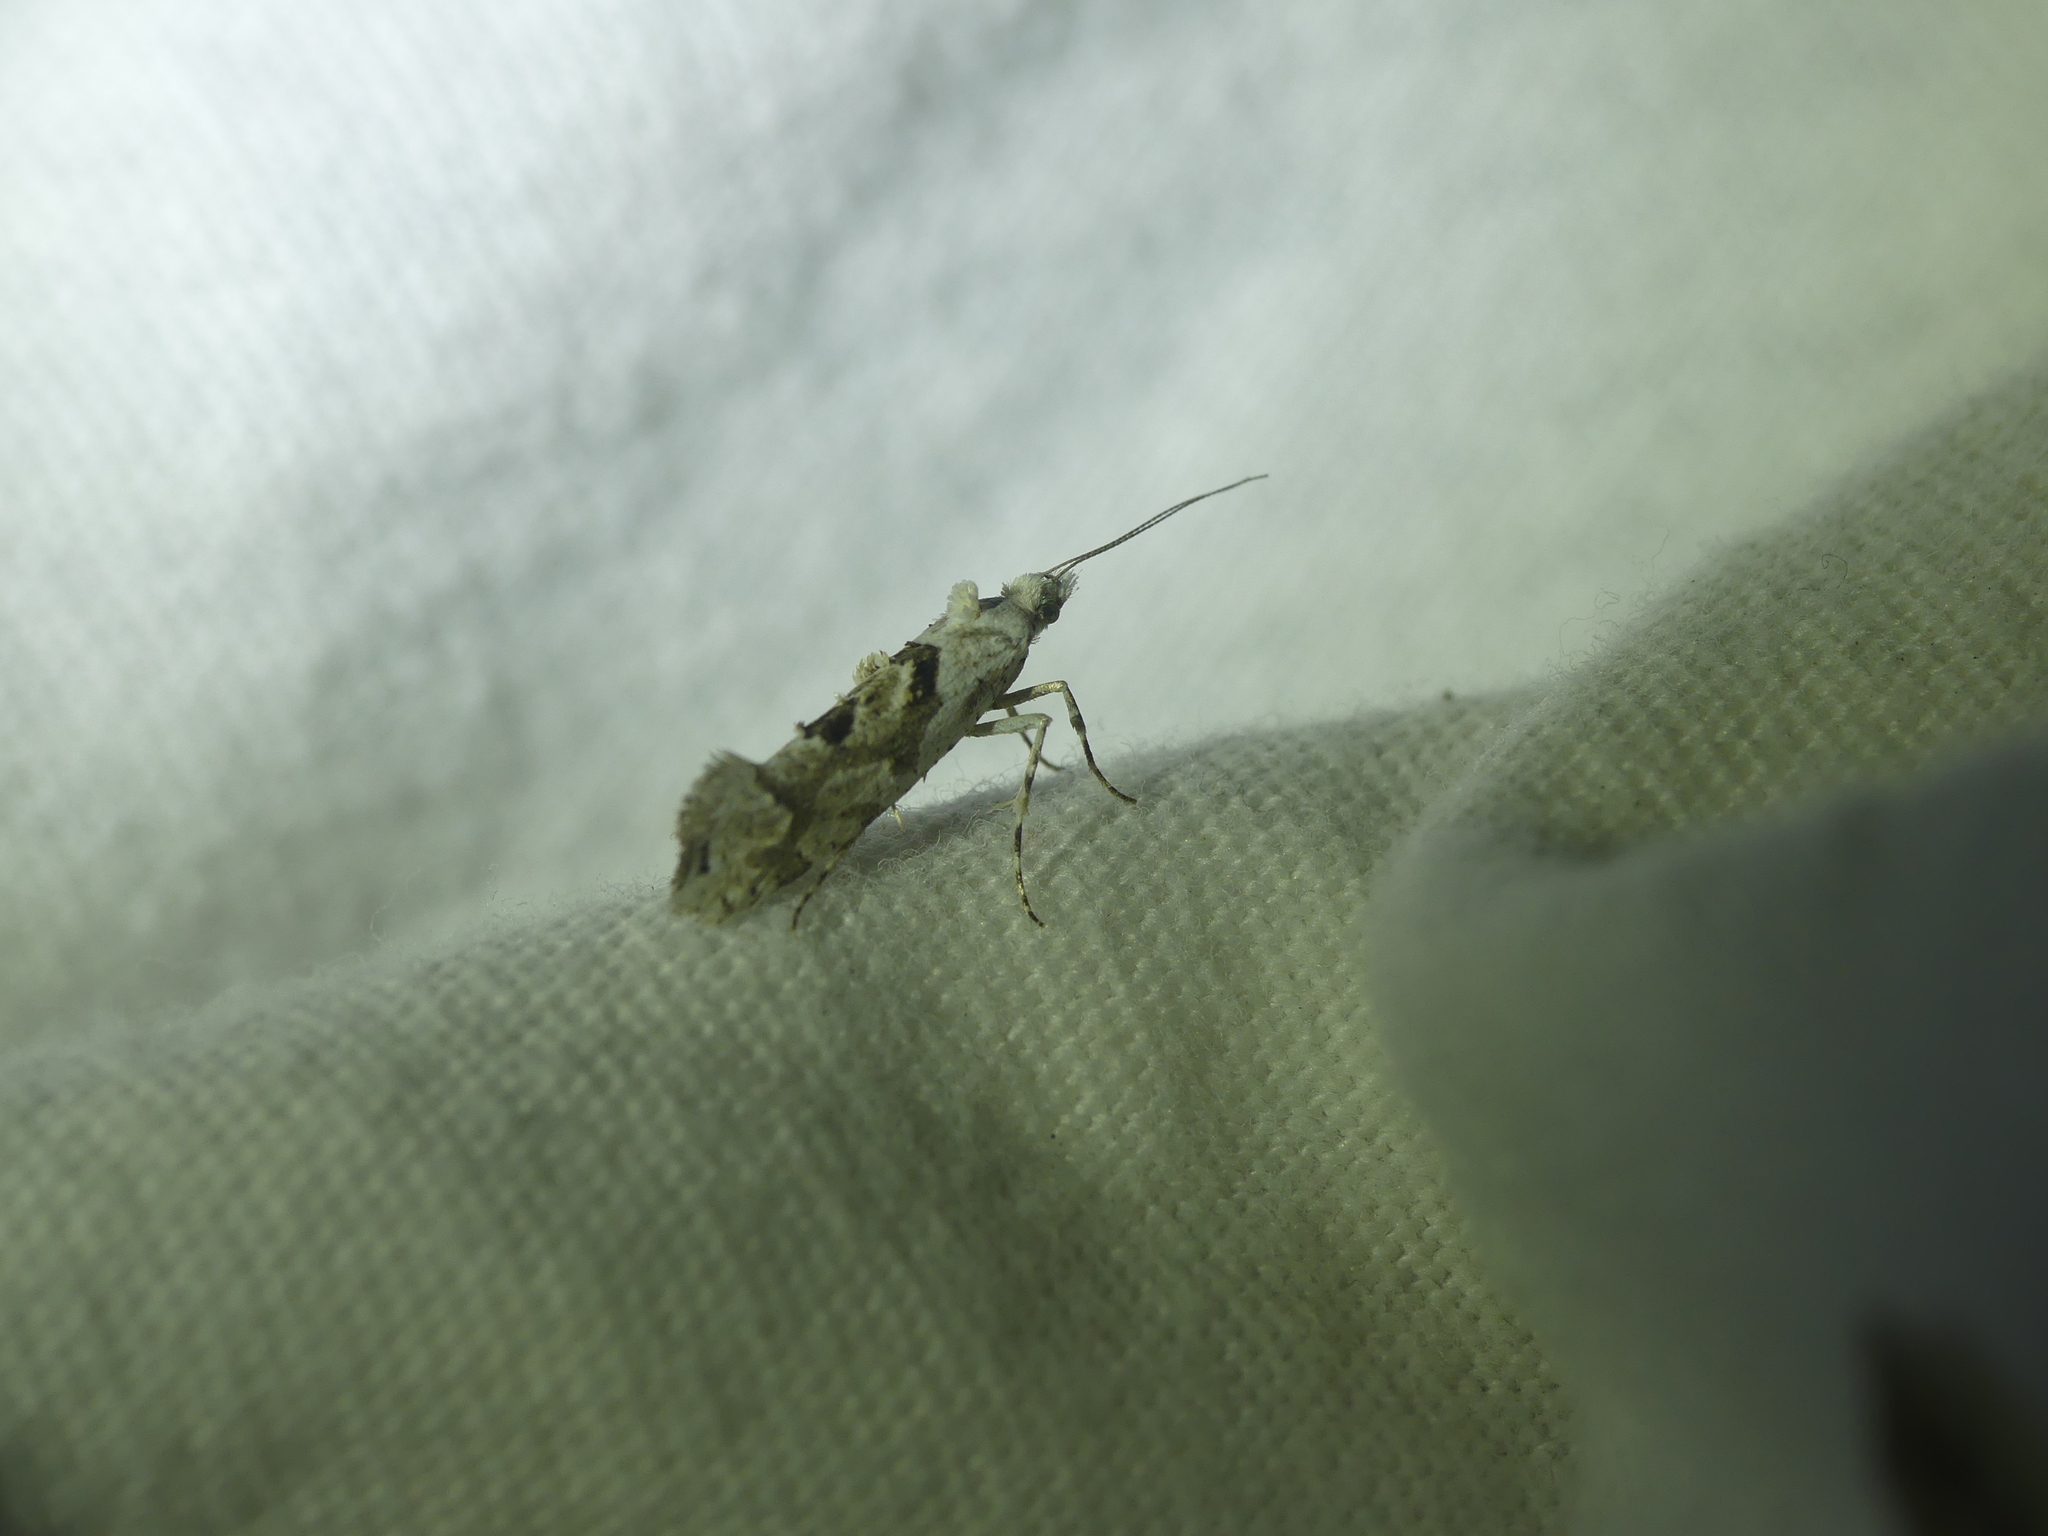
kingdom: Animalia
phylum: Arthropoda
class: Insecta
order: Lepidoptera
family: Plutellidae
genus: Ypsolophus
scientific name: Ypsolophus asperella
